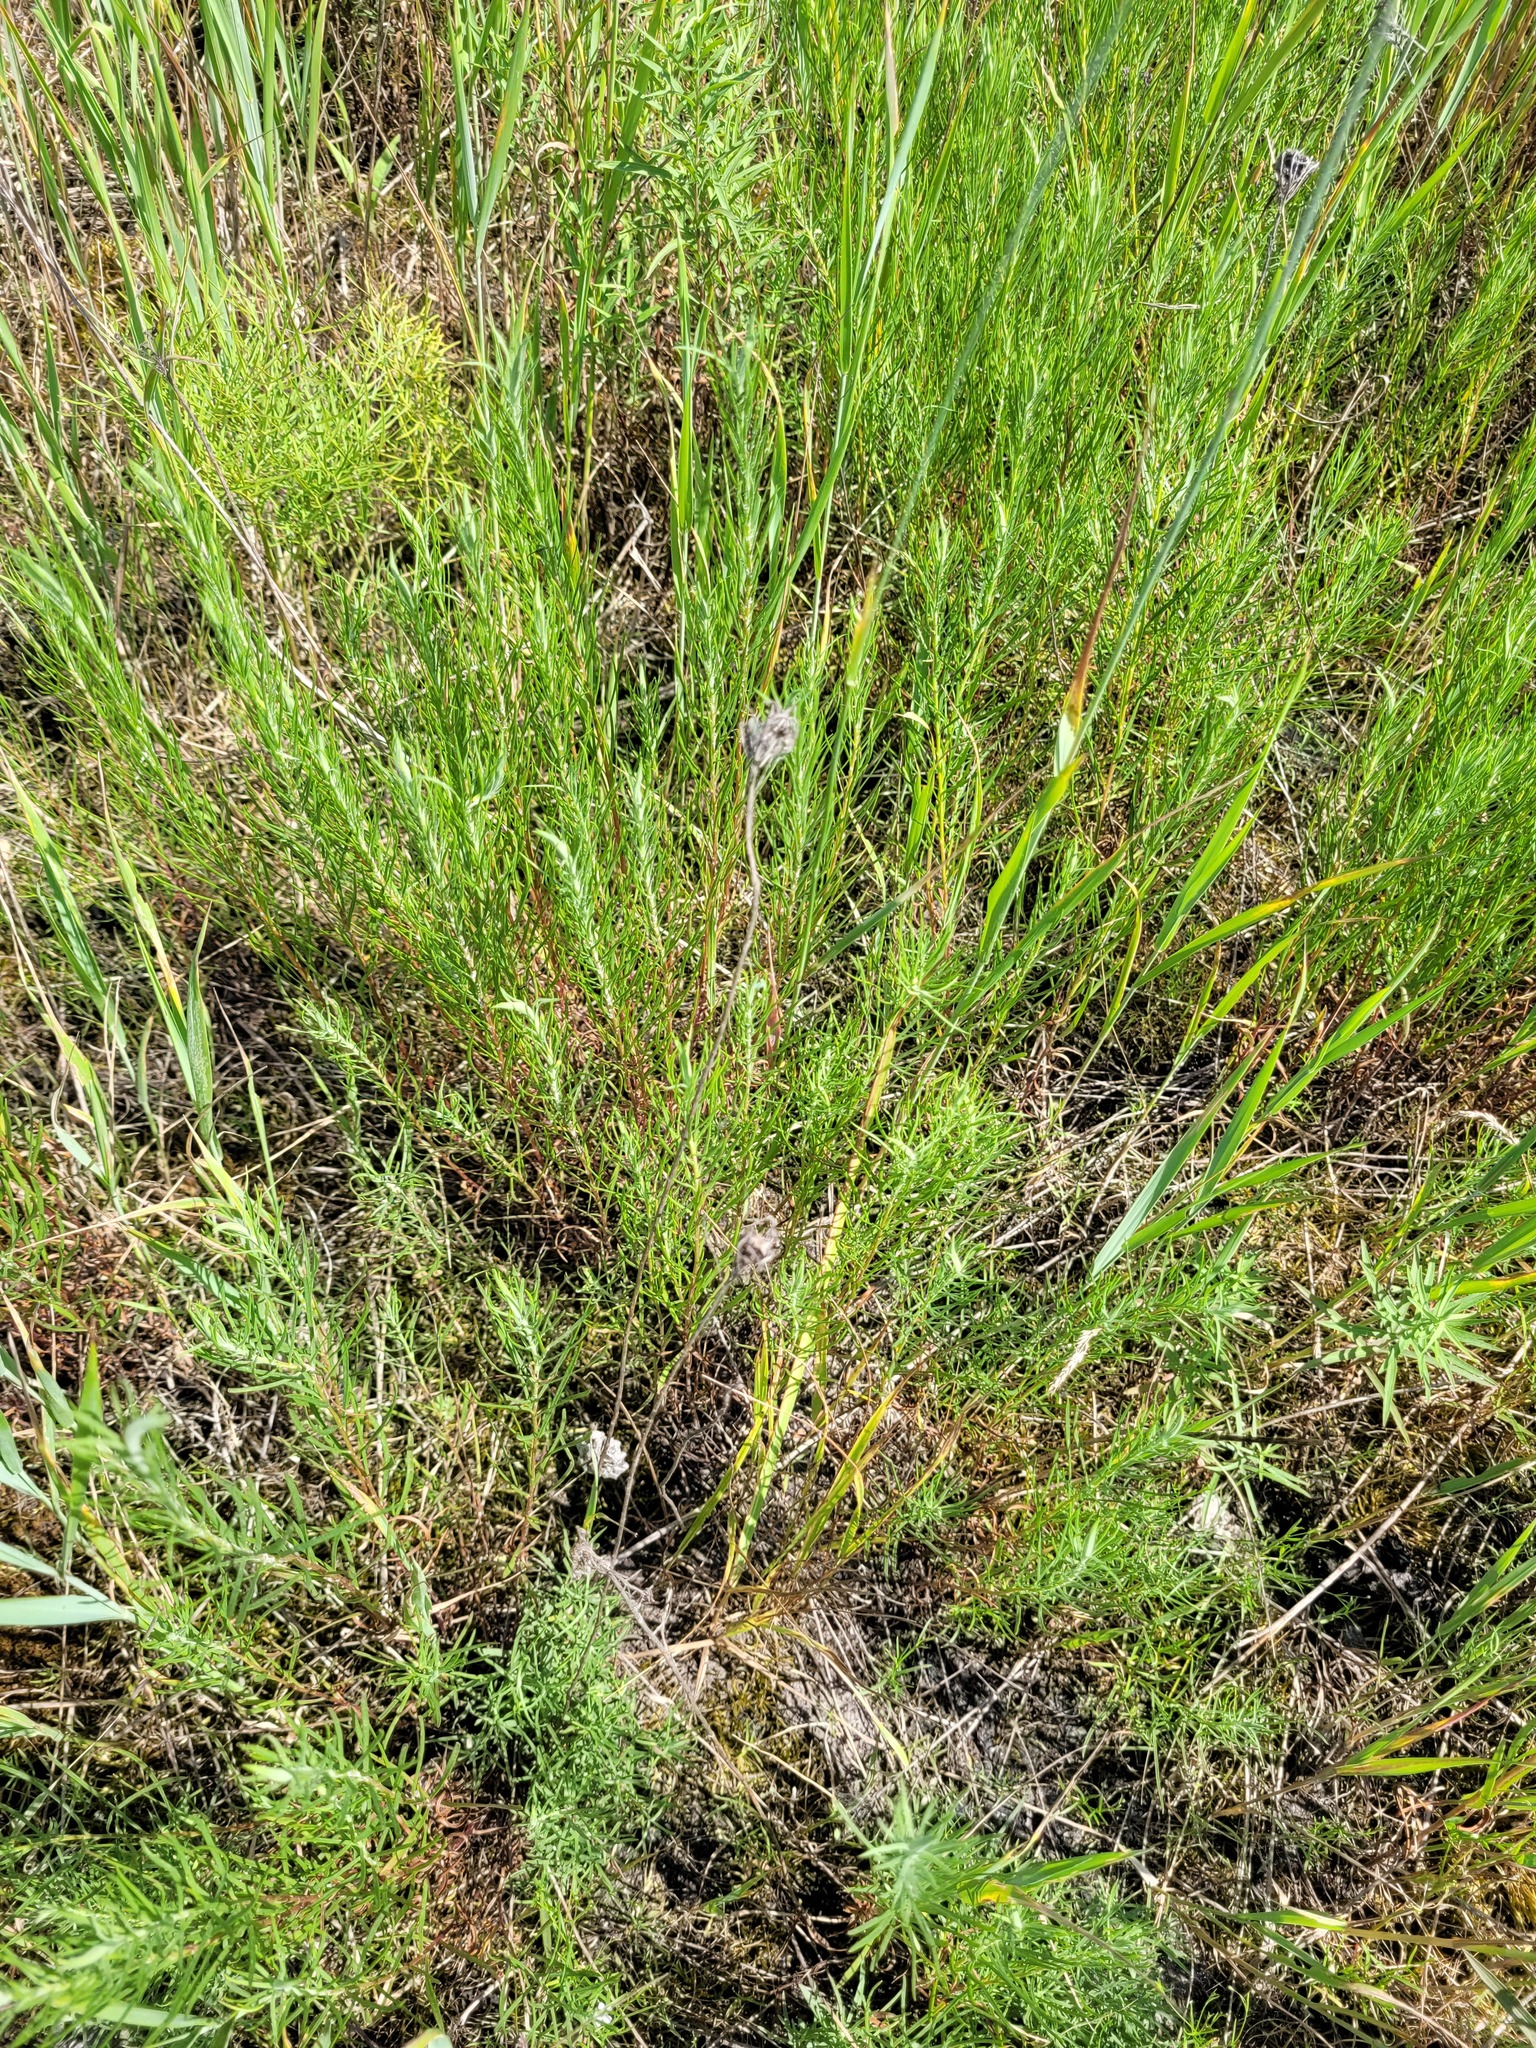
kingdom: Plantae
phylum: Tracheophyta
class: Magnoliopsida
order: Asterales
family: Asteraceae
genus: Galatella
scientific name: Galatella angustissima
